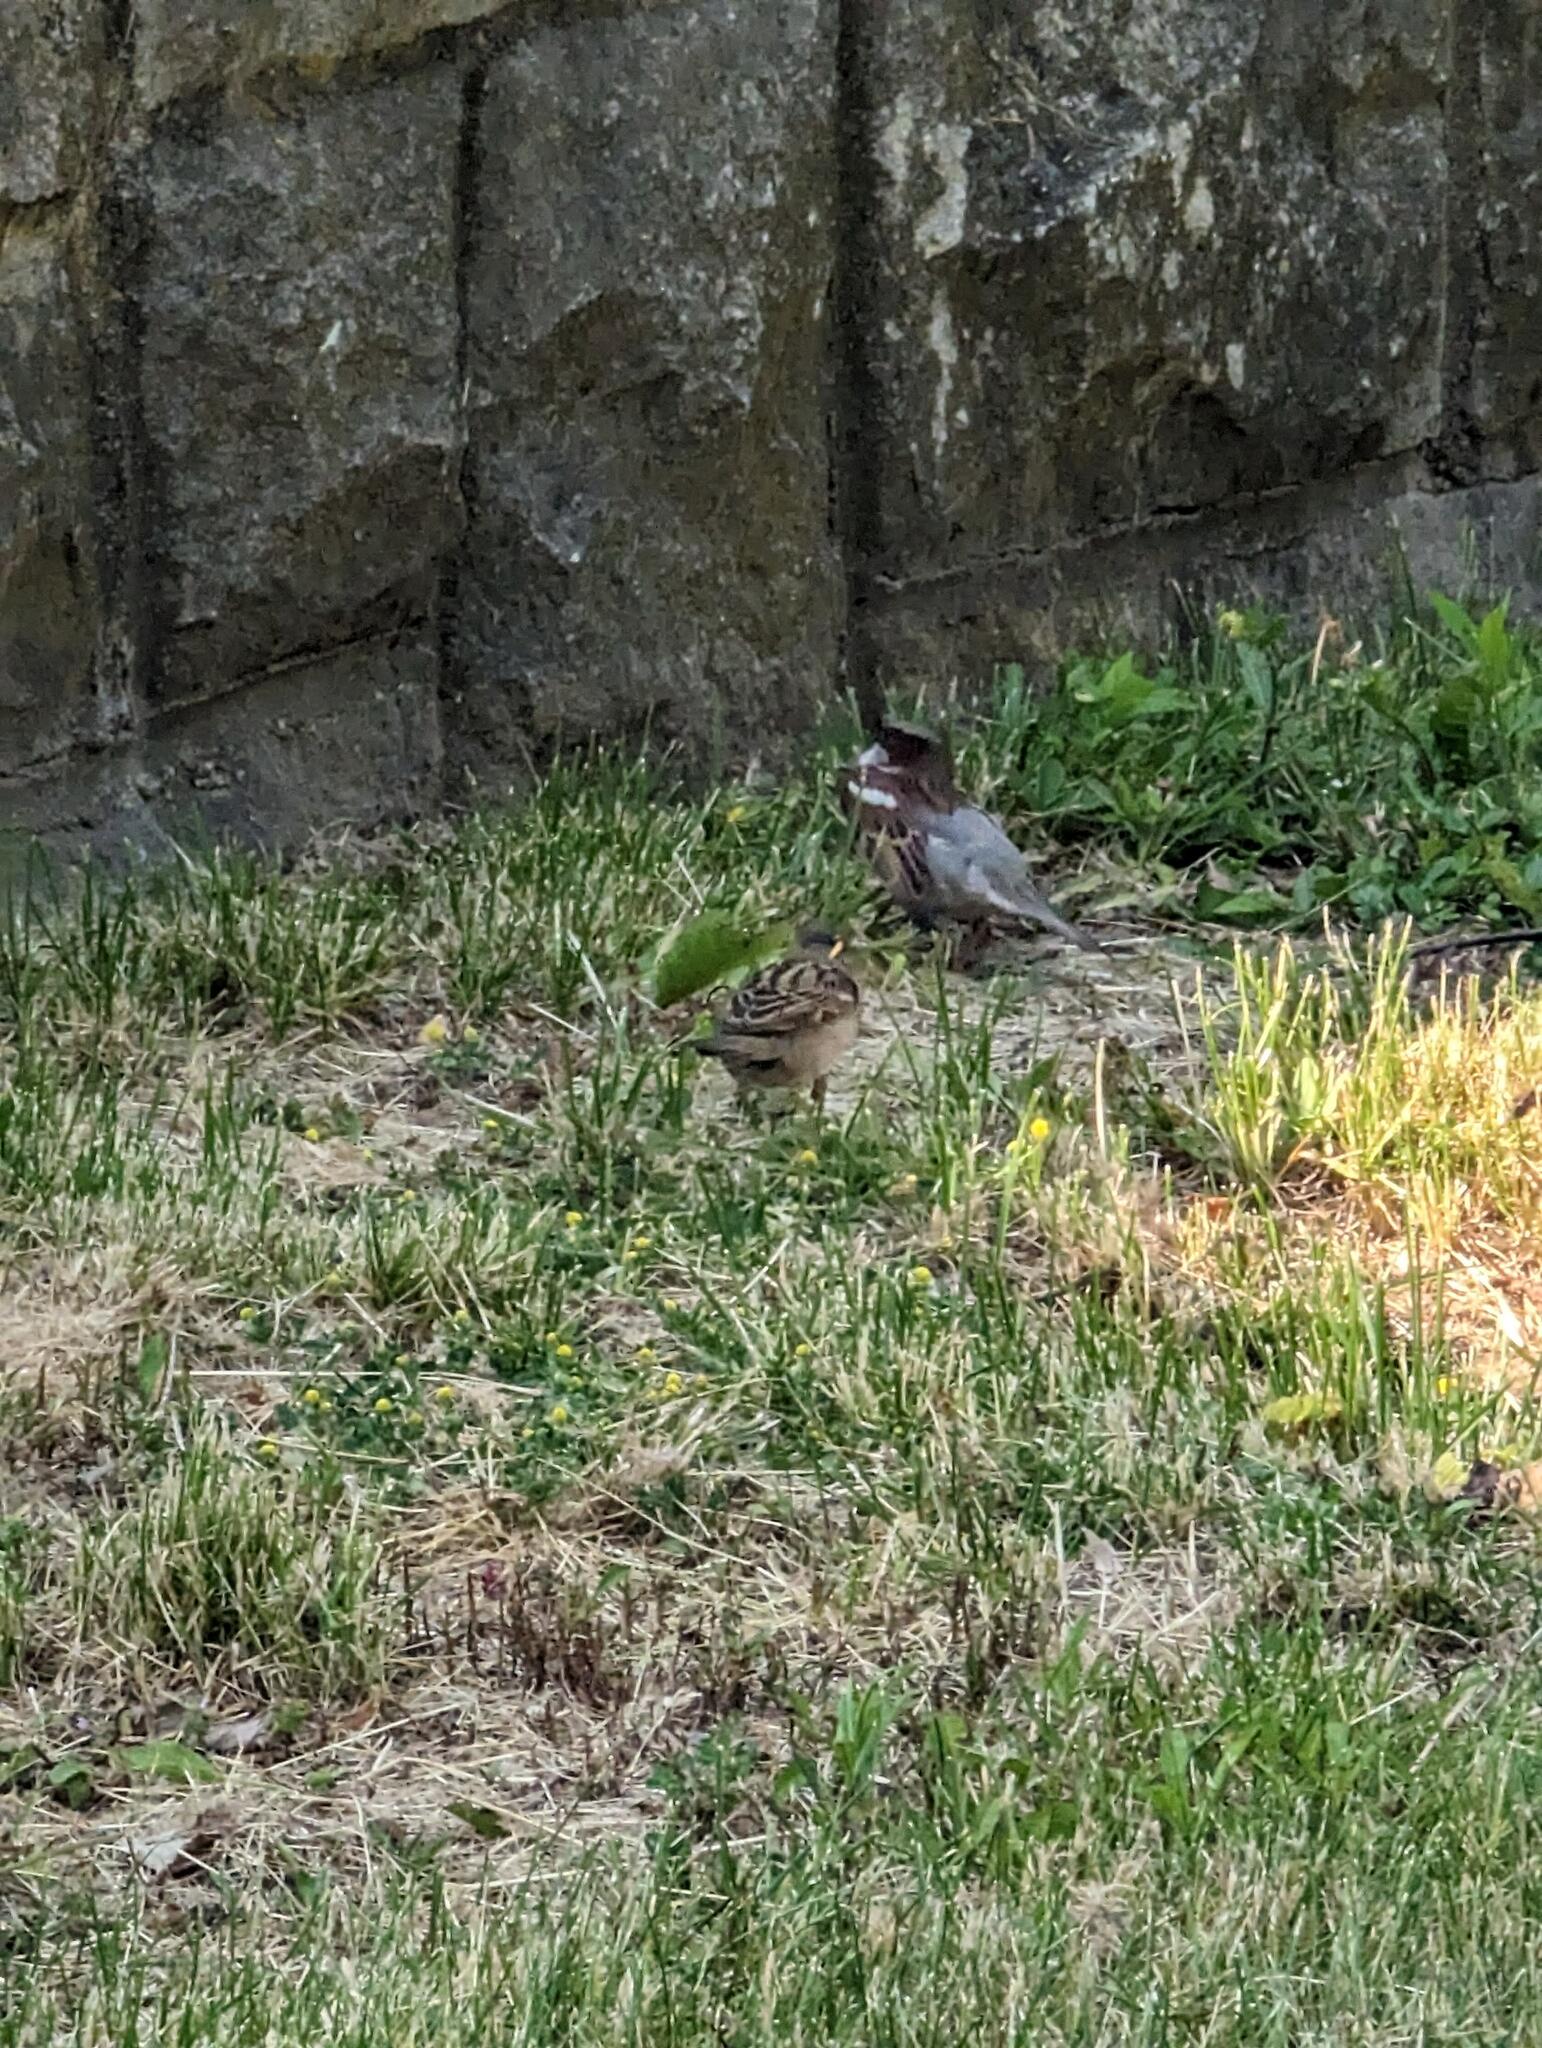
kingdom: Animalia
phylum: Chordata
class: Aves
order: Passeriformes
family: Passeridae
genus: Passer
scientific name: Passer domesticus
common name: House sparrow
